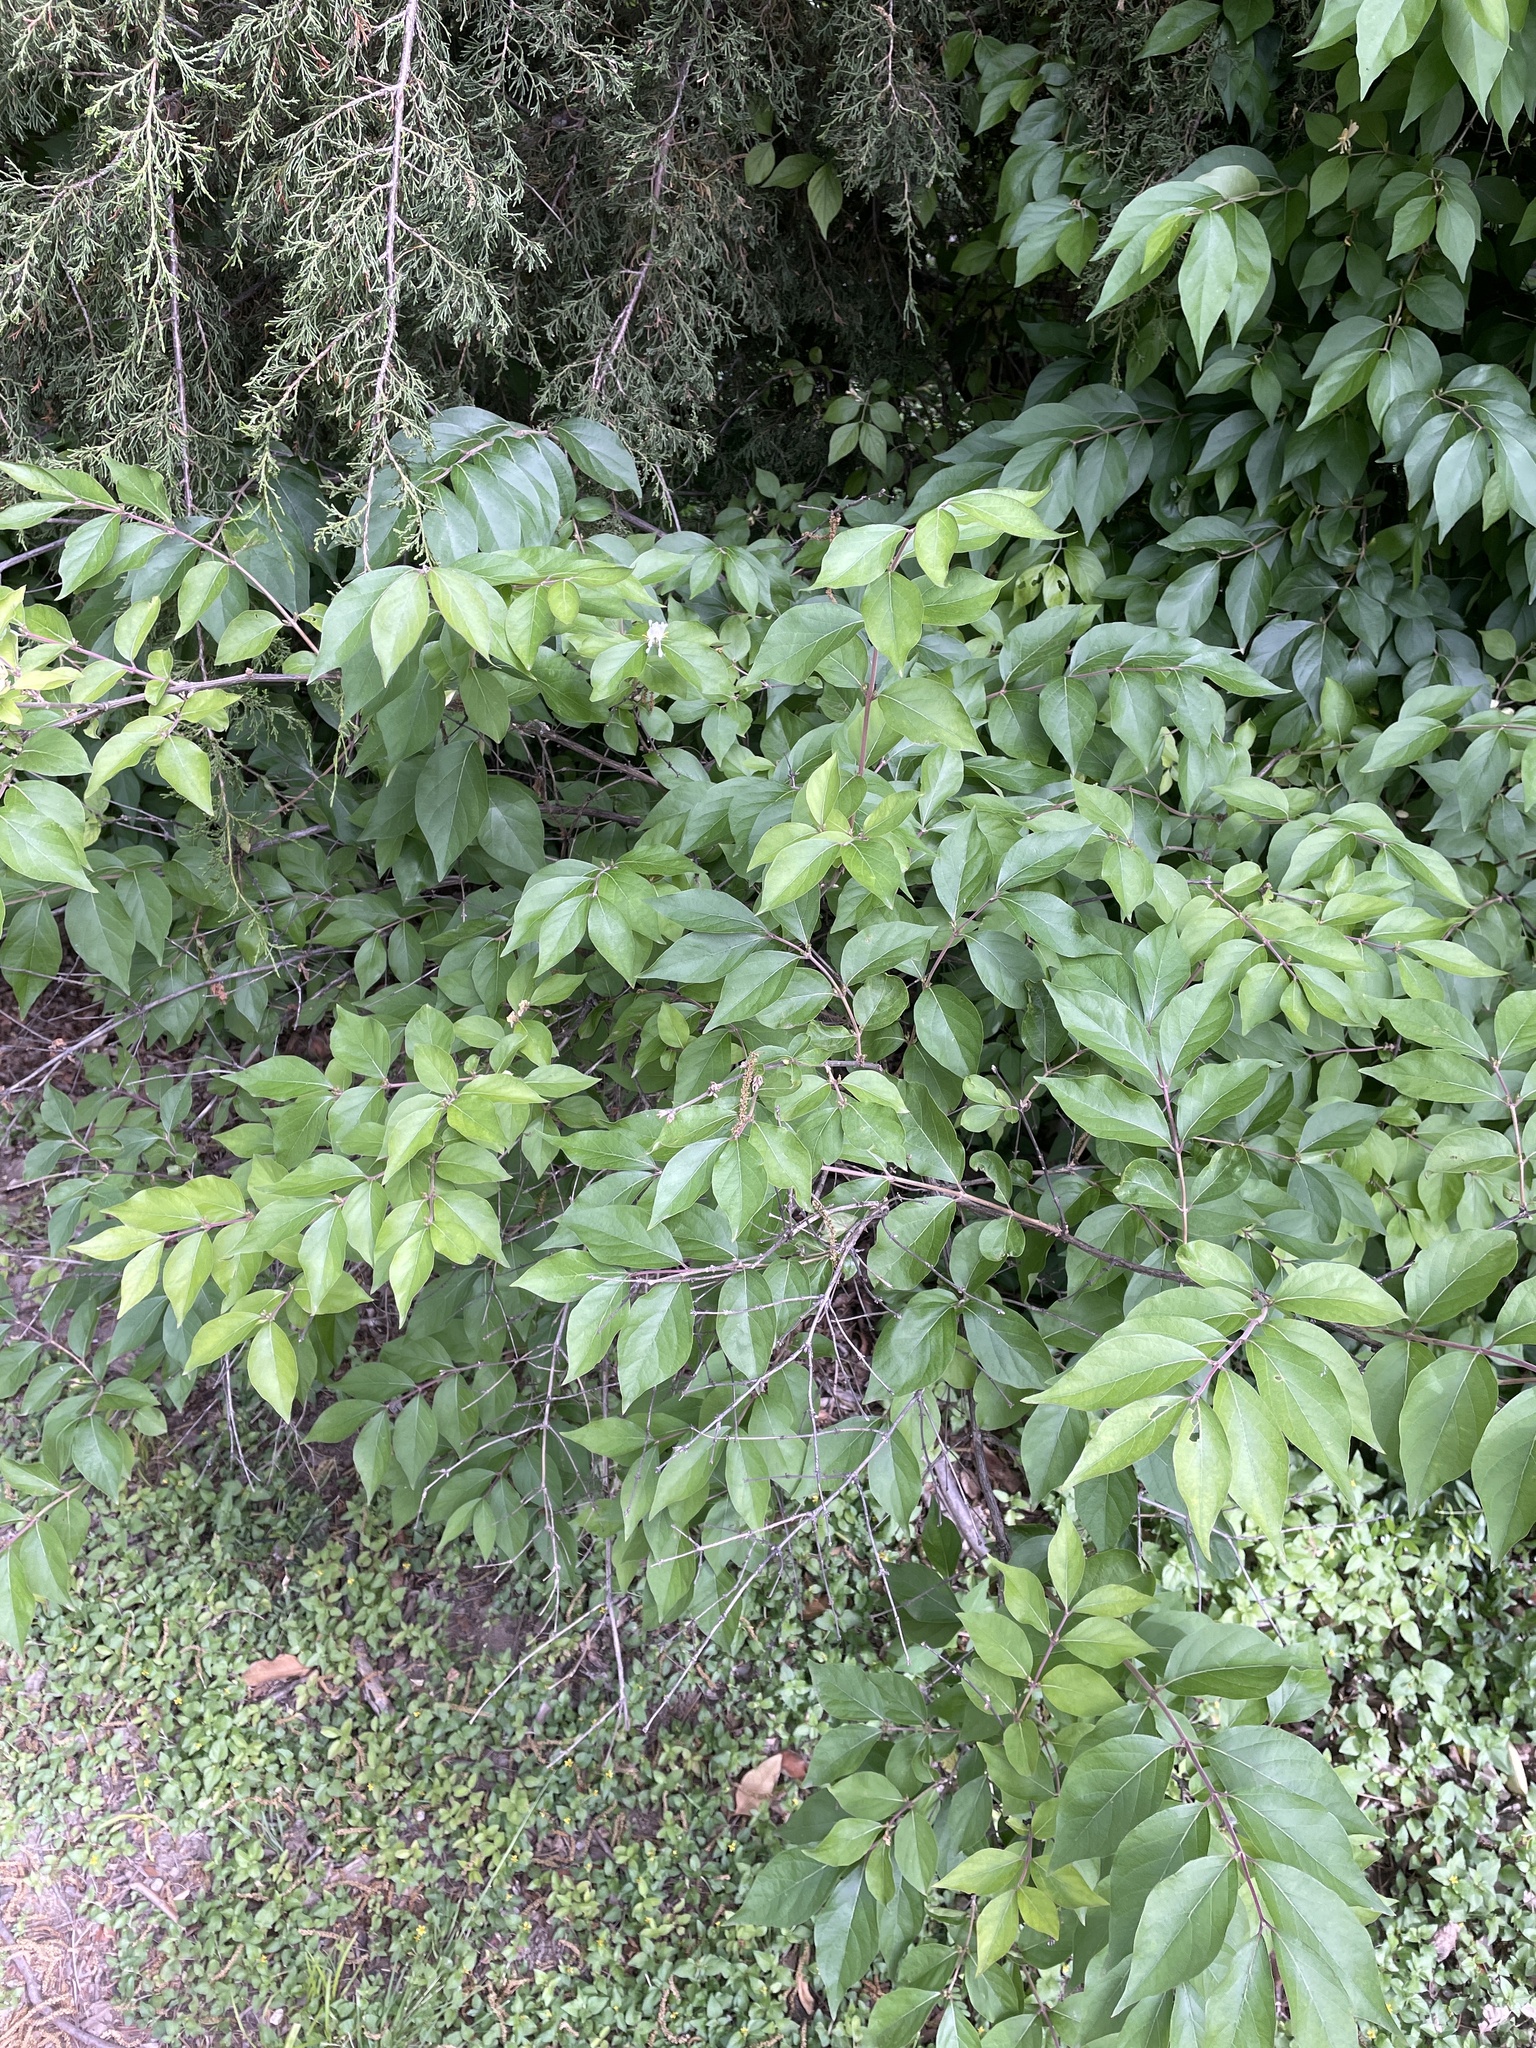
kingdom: Plantae
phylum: Tracheophyta
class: Magnoliopsida
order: Dipsacales
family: Caprifoliaceae
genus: Lonicera
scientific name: Lonicera maackii
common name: Amur honeysuckle
